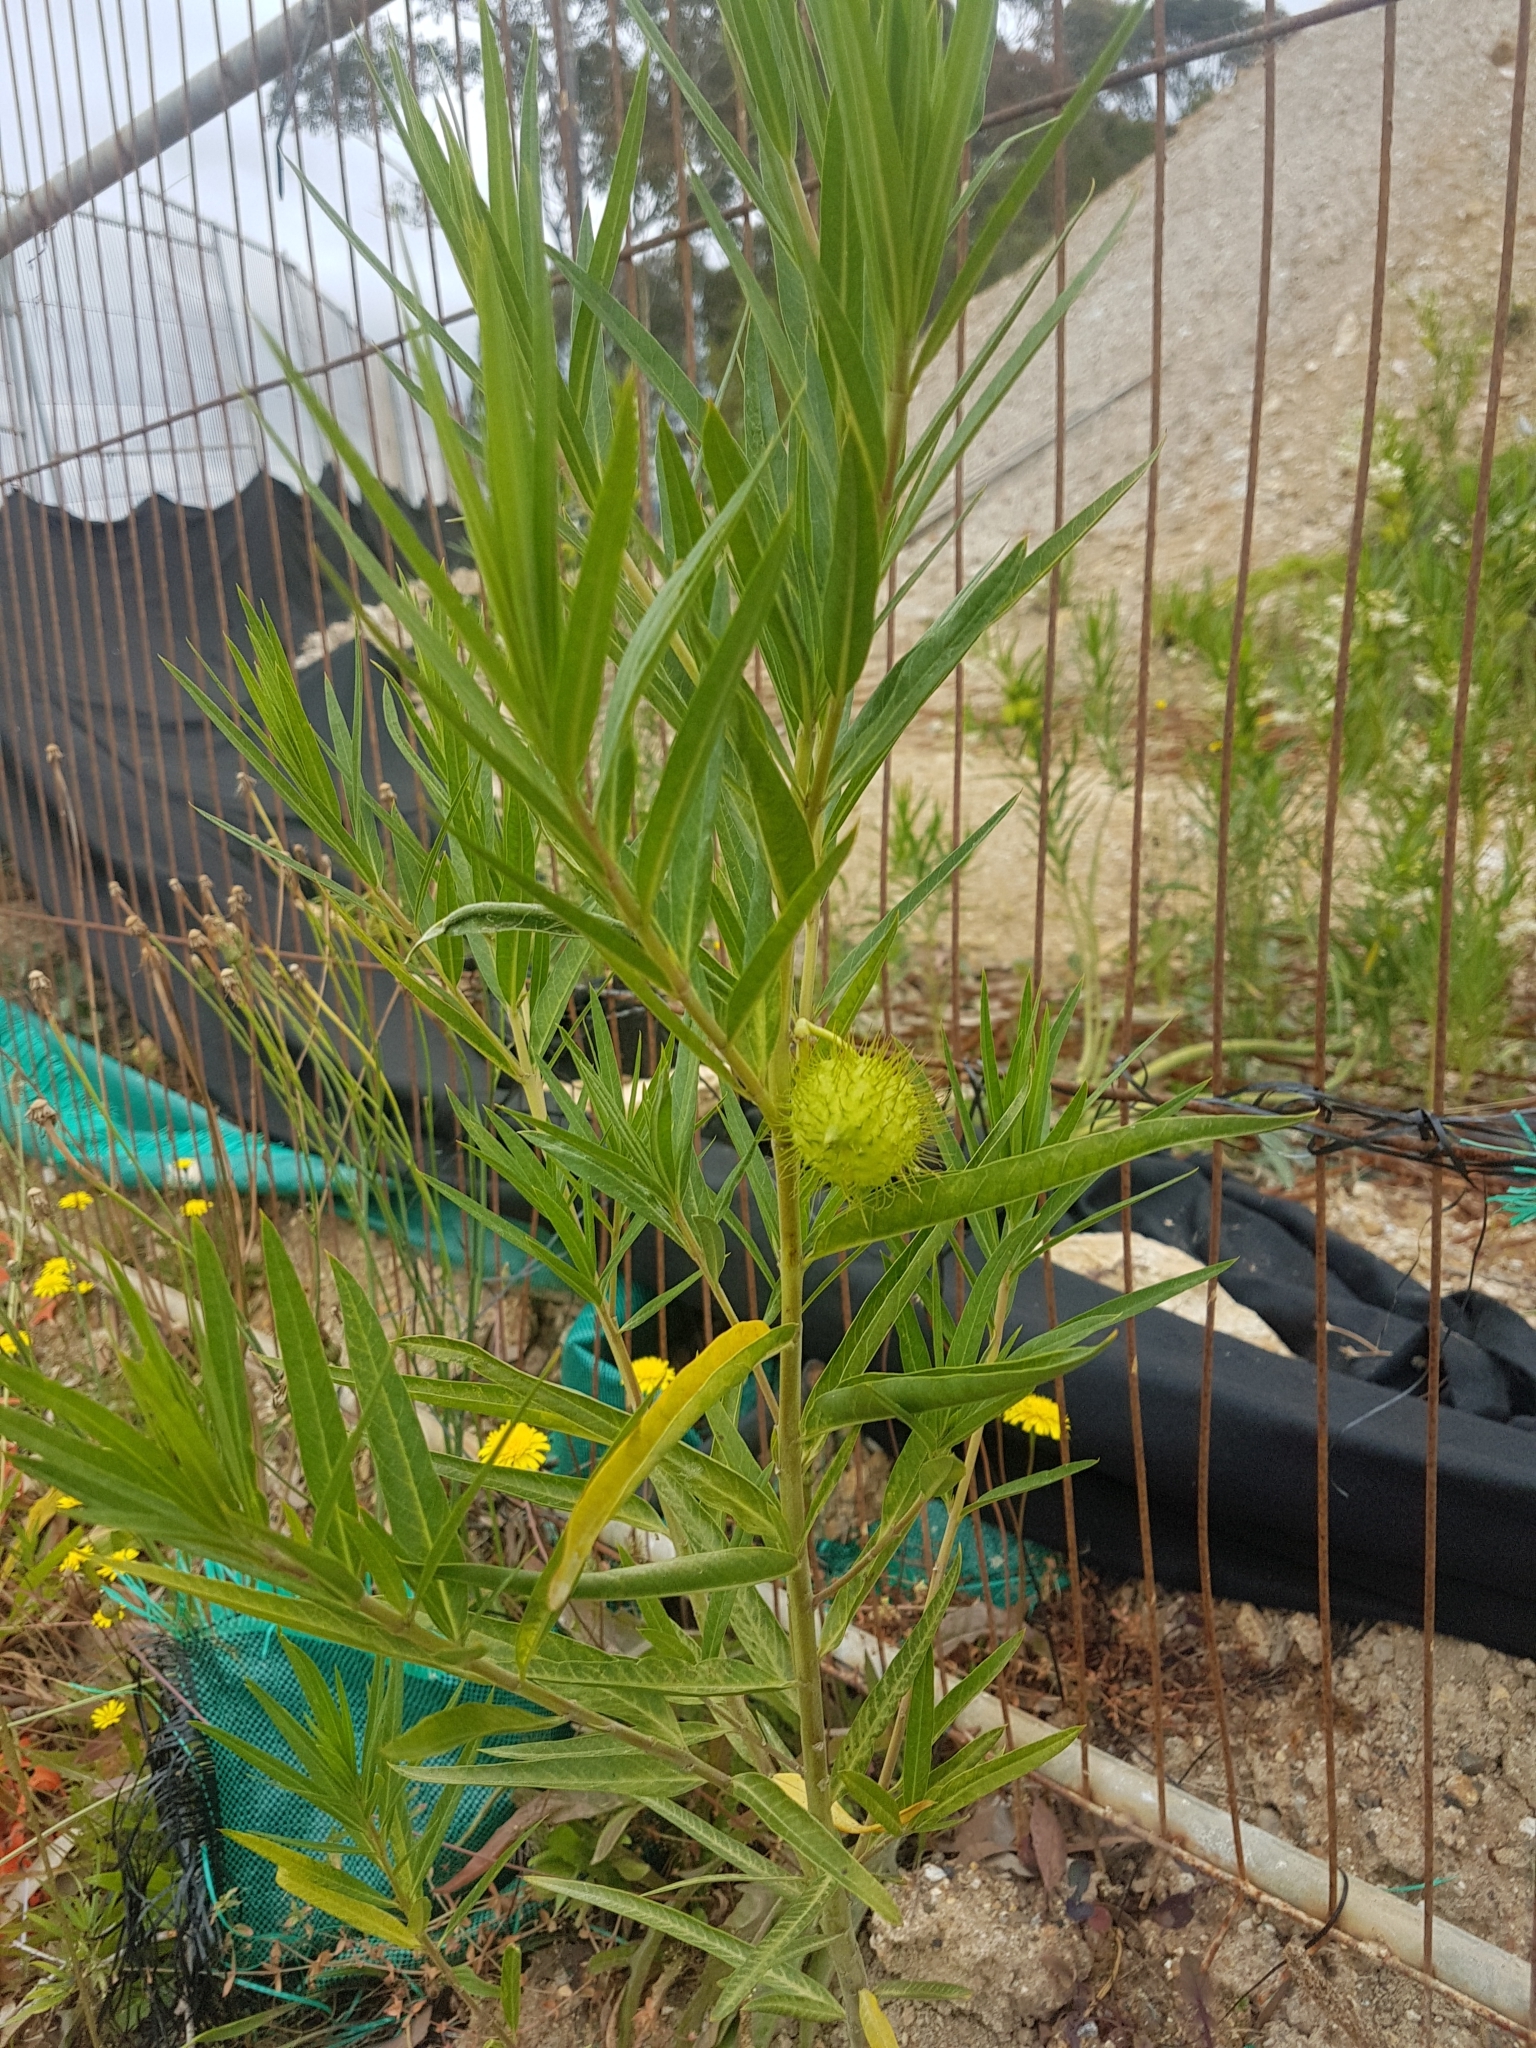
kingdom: Plantae
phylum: Tracheophyta
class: Magnoliopsida
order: Gentianales
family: Apocynaceae
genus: Gomphocarpus
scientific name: Gomphocarpus fruticosus
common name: Milkweed
